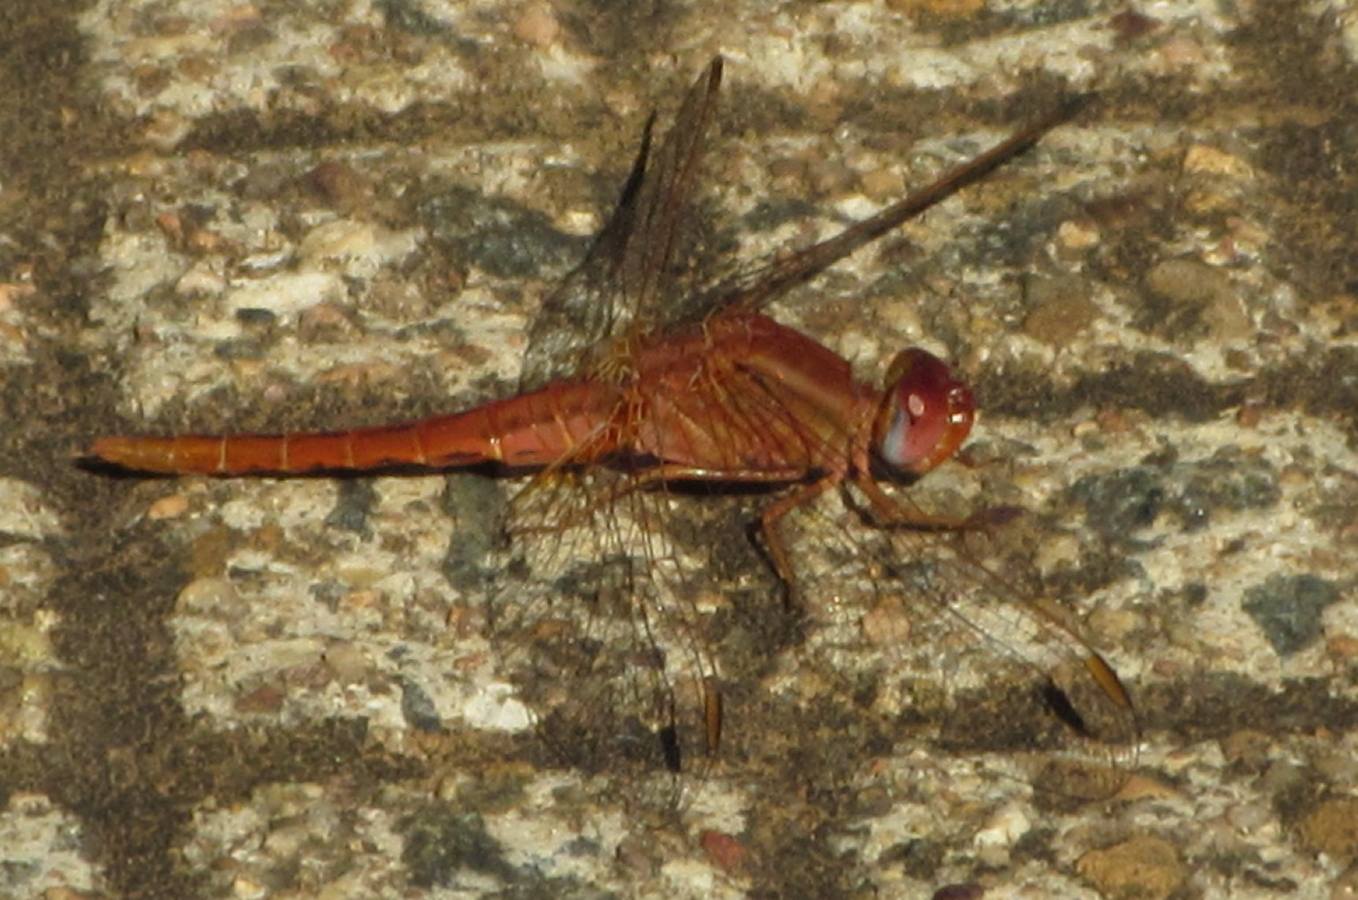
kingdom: Animalia
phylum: Arthropoda
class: Insecta
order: Odonata
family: Libellulidae
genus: Crocothemis
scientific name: Crocothemis sanguinolenta
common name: Little scarlet
